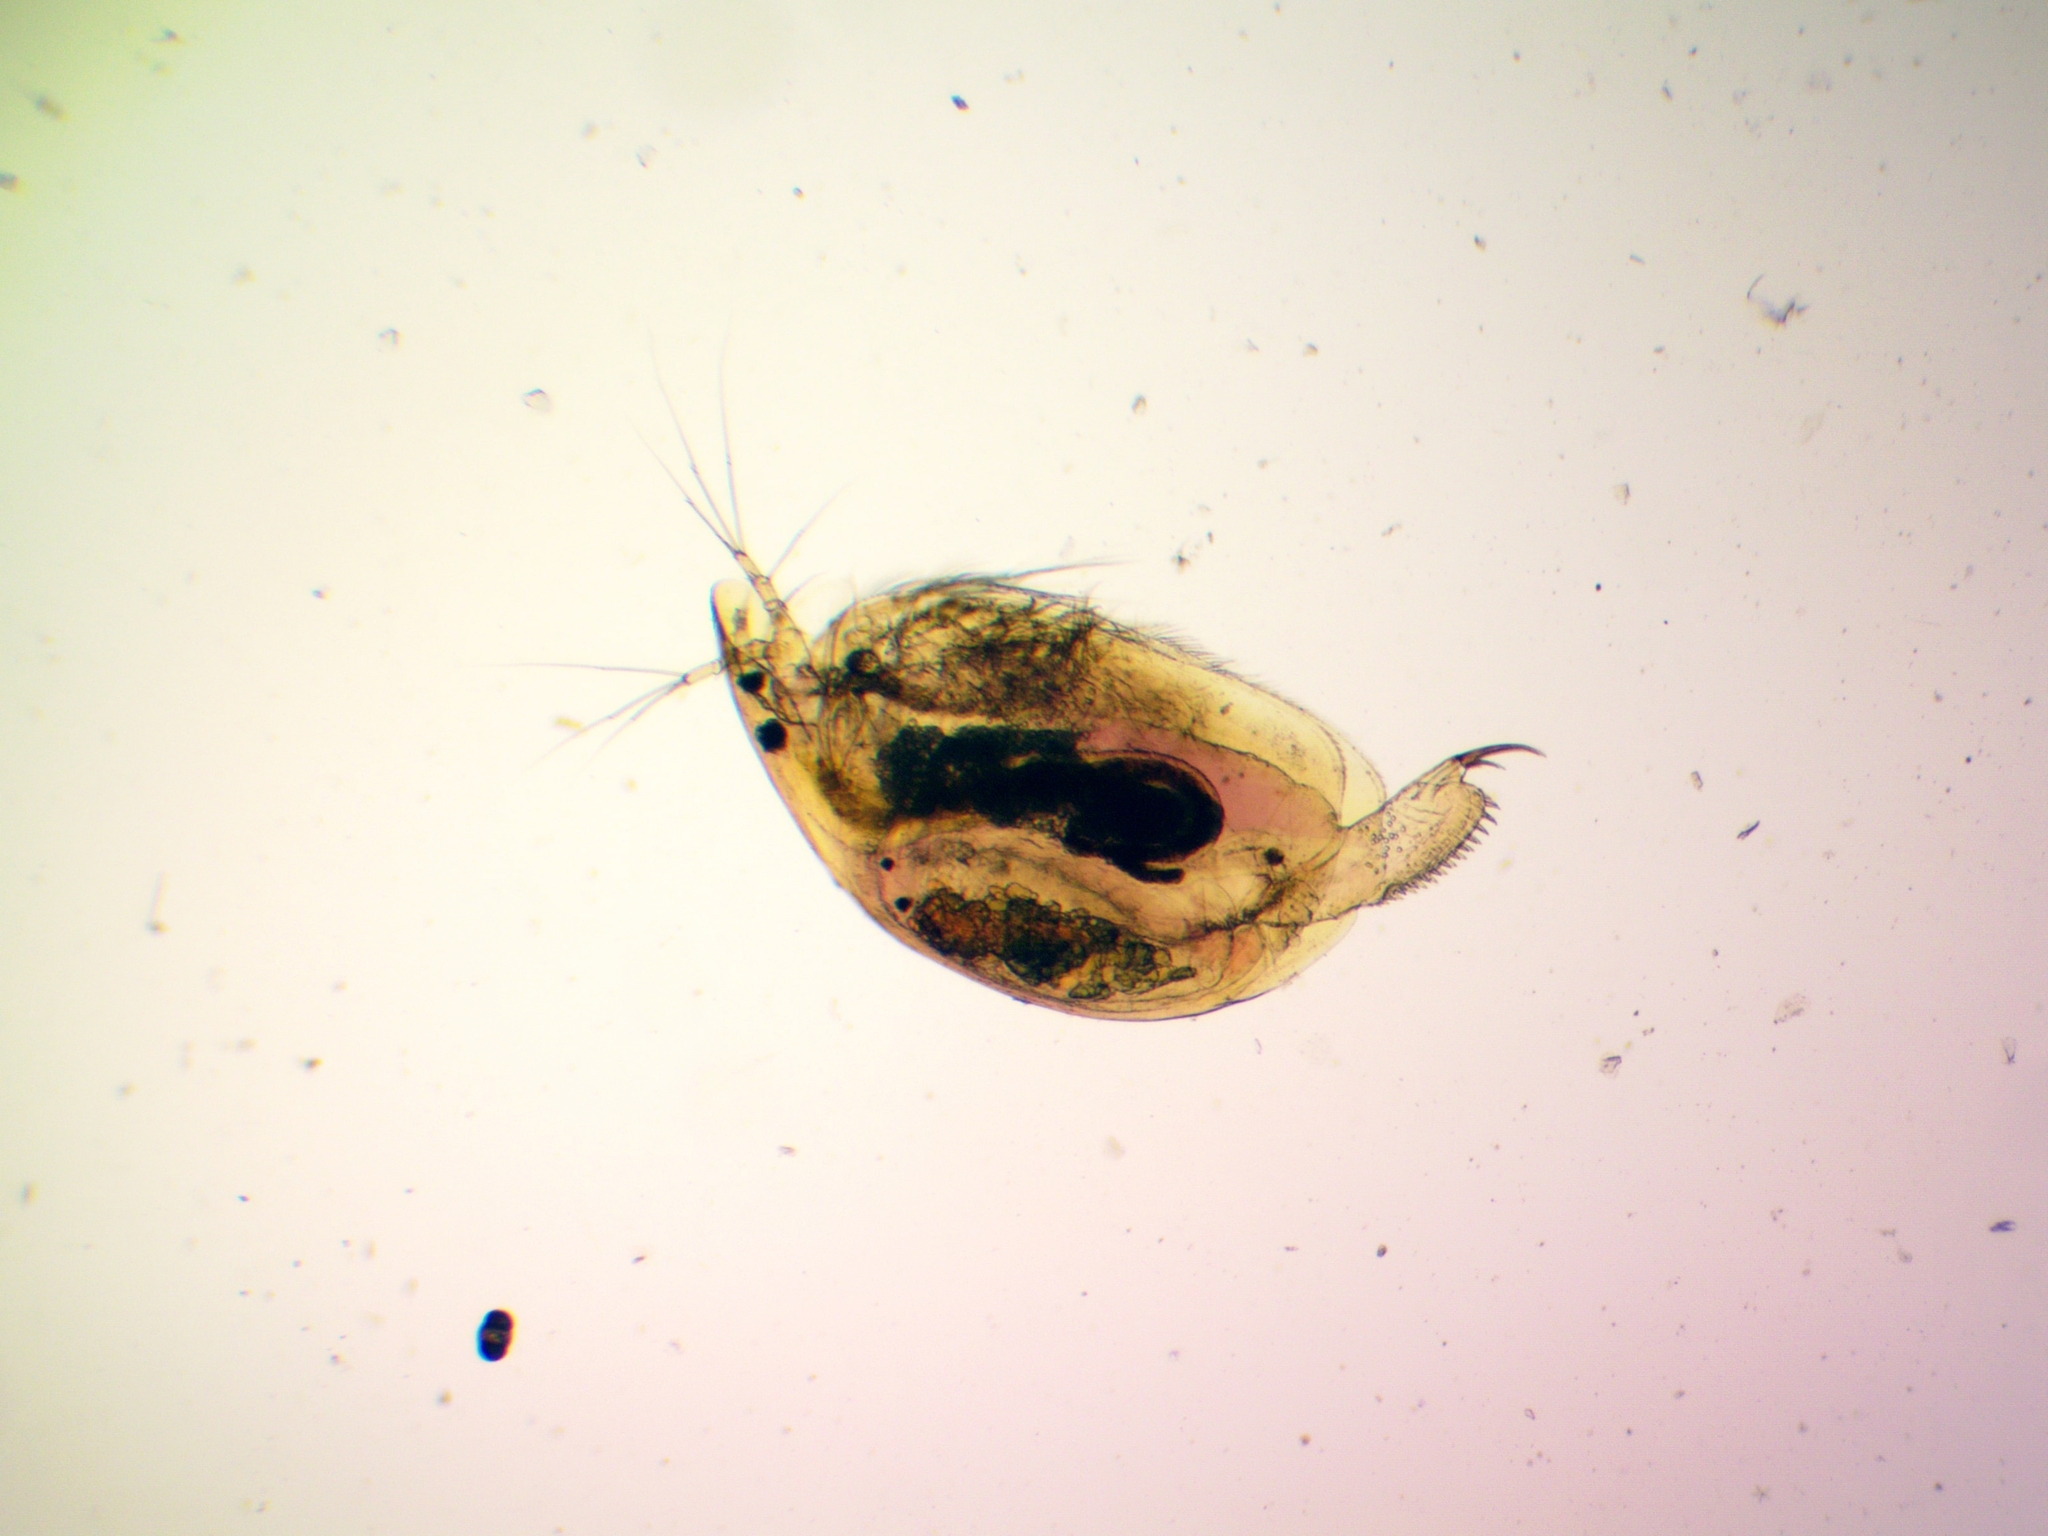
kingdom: Animalia
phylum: Arthropoda
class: Branchiopoda
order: Diplostraca
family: Chydoridae
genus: Alona
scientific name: Alona affinis
